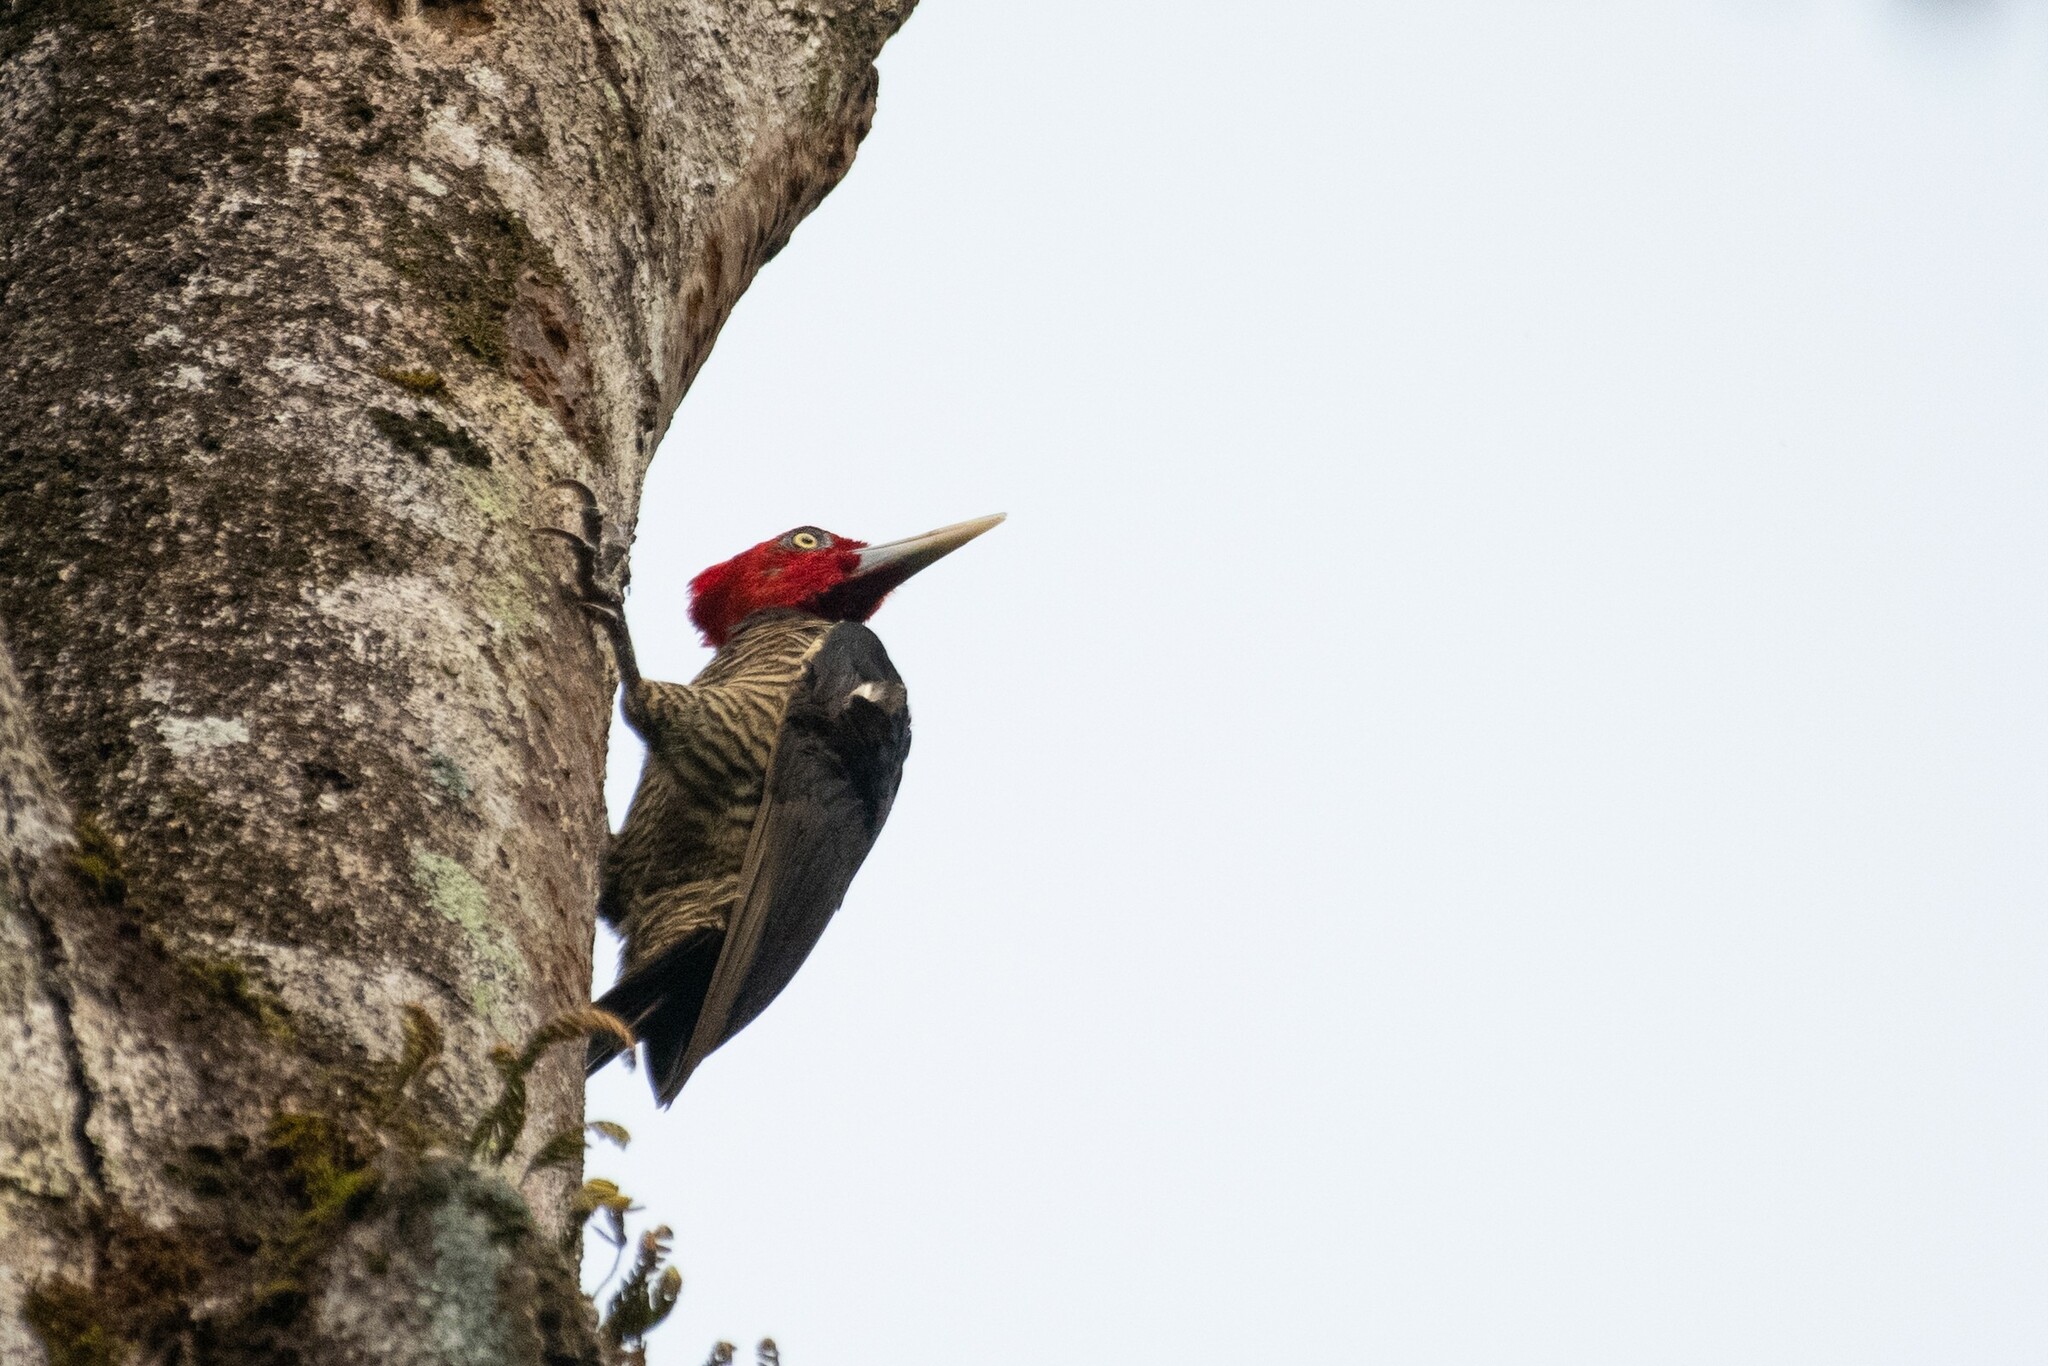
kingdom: Animalia
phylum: Chordata
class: Aves
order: Piciformes
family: Picidae
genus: Campephilus
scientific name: Campephilus guatemalensis
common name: Pale-billed woodpecker
